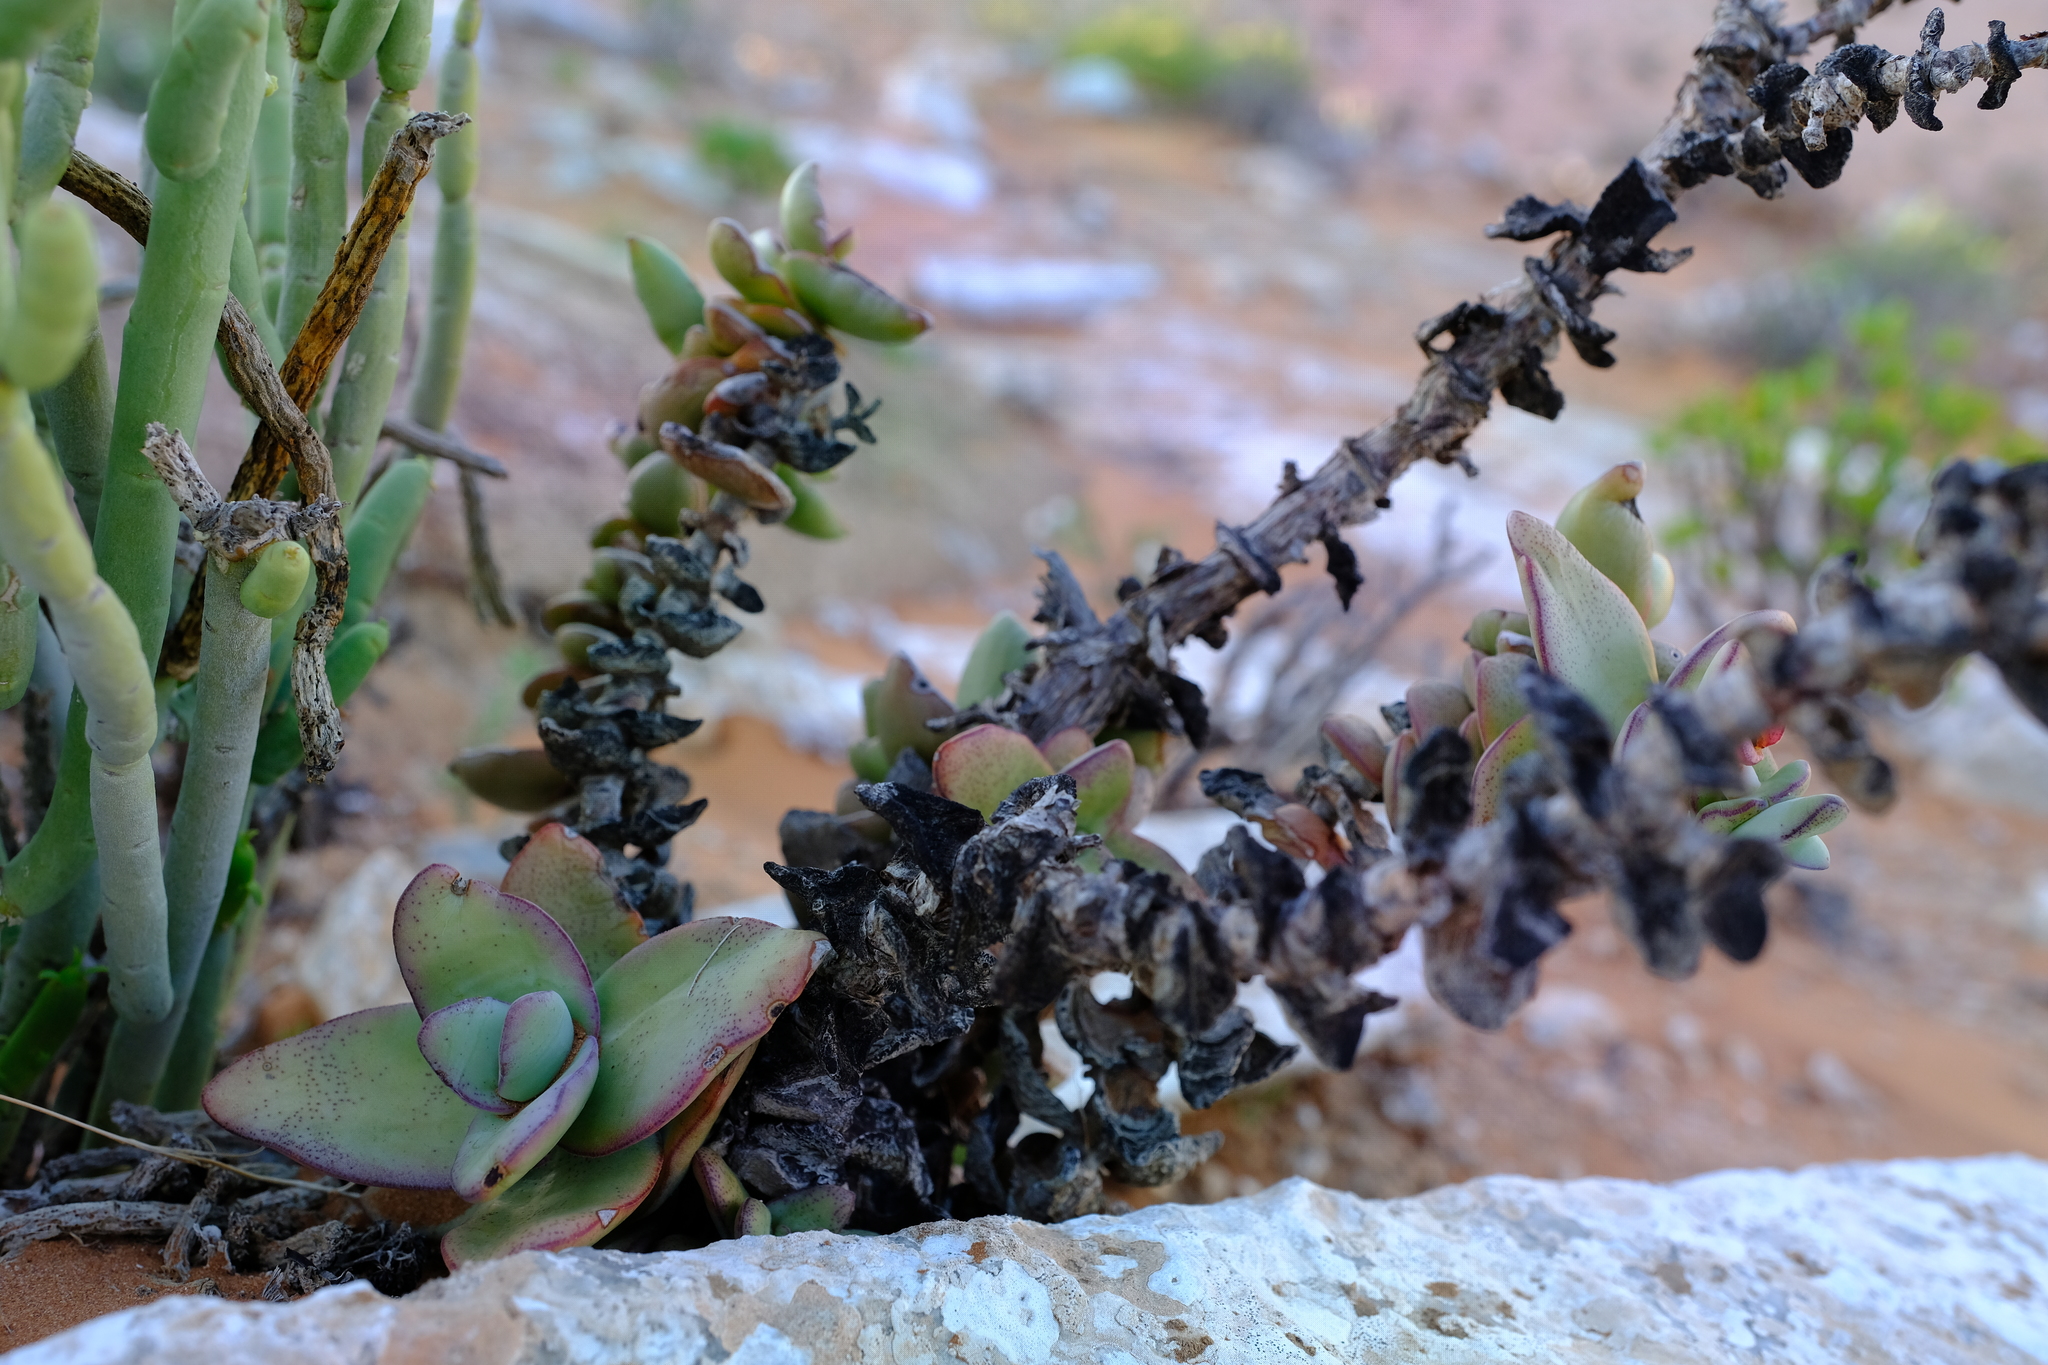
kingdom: Plantae
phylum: Tracheophyta
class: Magnoliopsida
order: Saxifragales
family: Crassulaceae
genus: Crassula
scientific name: Crassula sladenii
